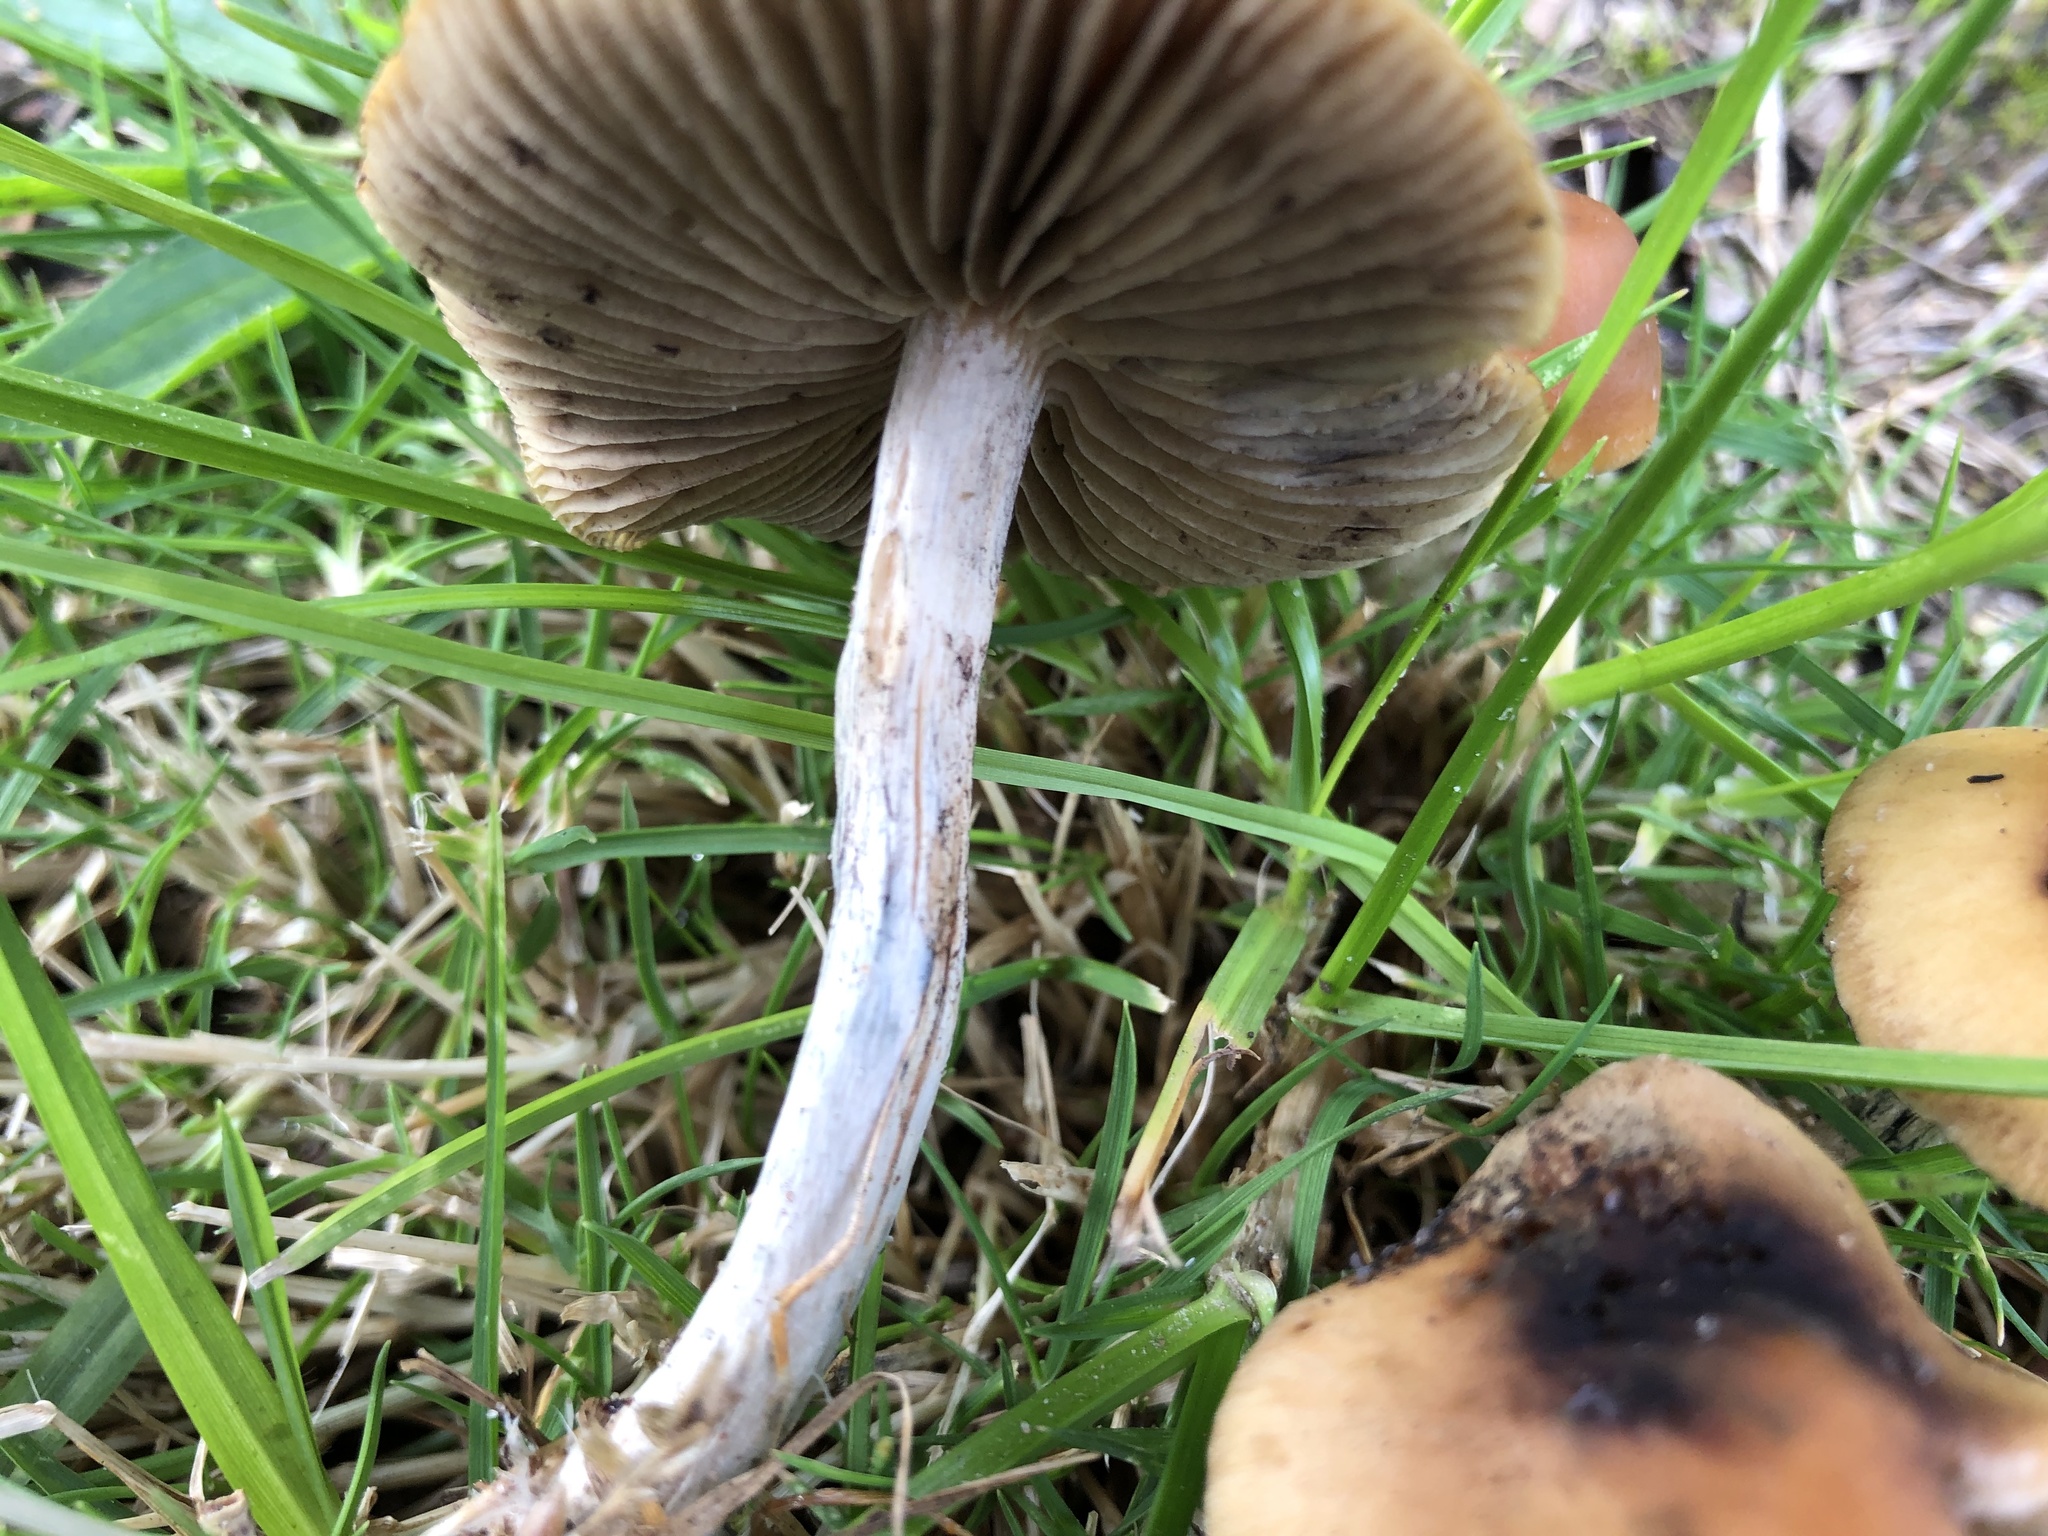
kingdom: Fungi
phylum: Basidiomycota
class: Agaricomycetes
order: Agaricales
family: Hymenogastraceae
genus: Psilocybe
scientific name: Psilocybe subaeruginosa
